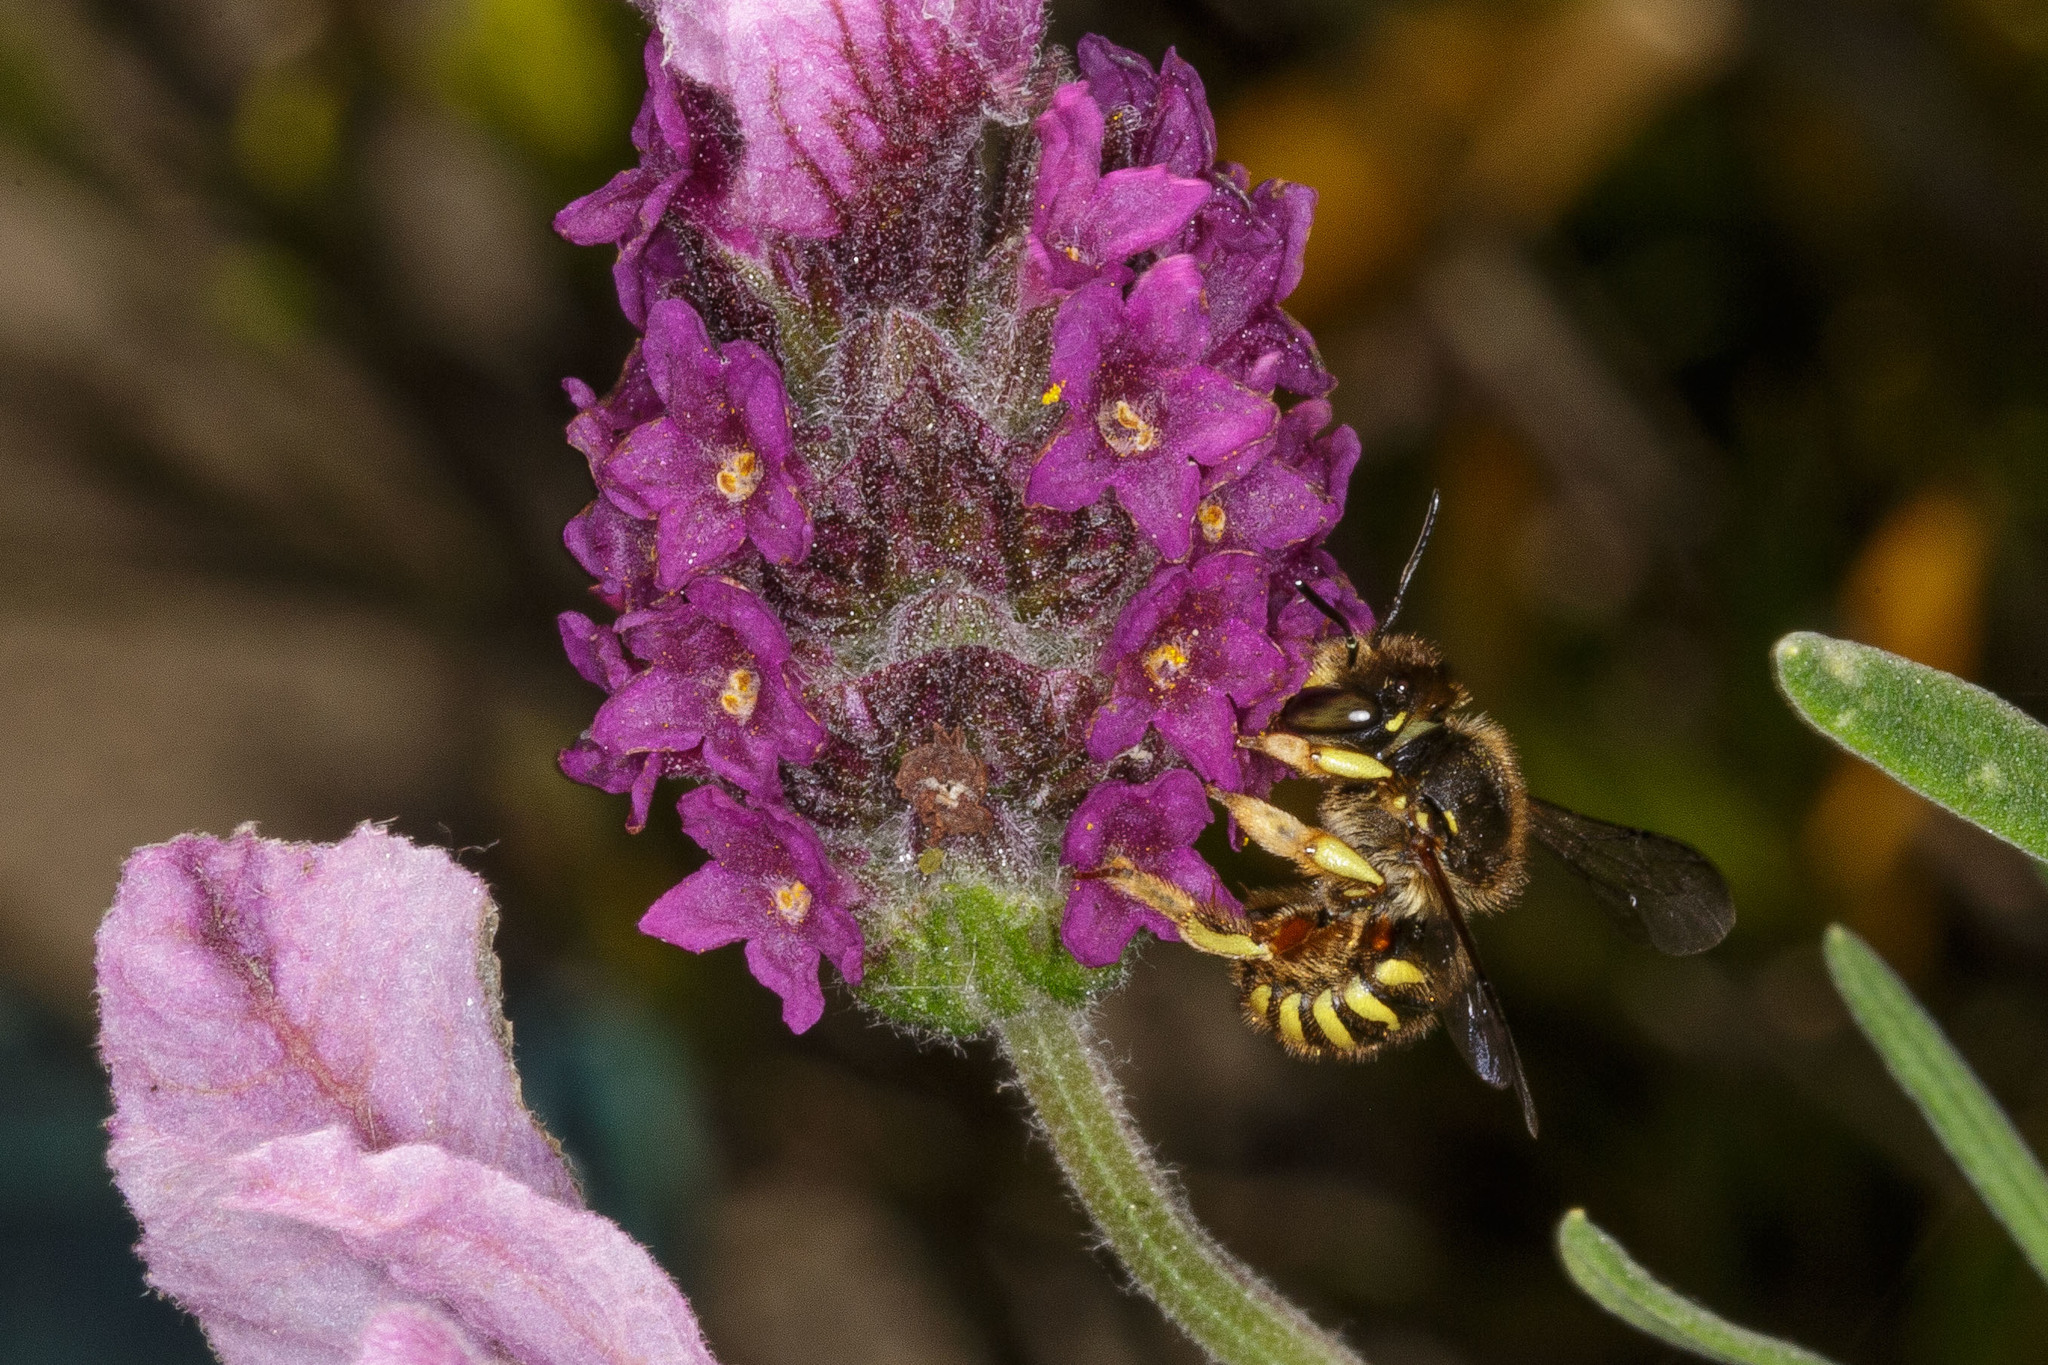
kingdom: Animalia
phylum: Arthropoda
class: Insecta
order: Hymenoptera
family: Megachilidae
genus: Anthidium
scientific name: Anthidium manicatum
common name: Wool carder bee
